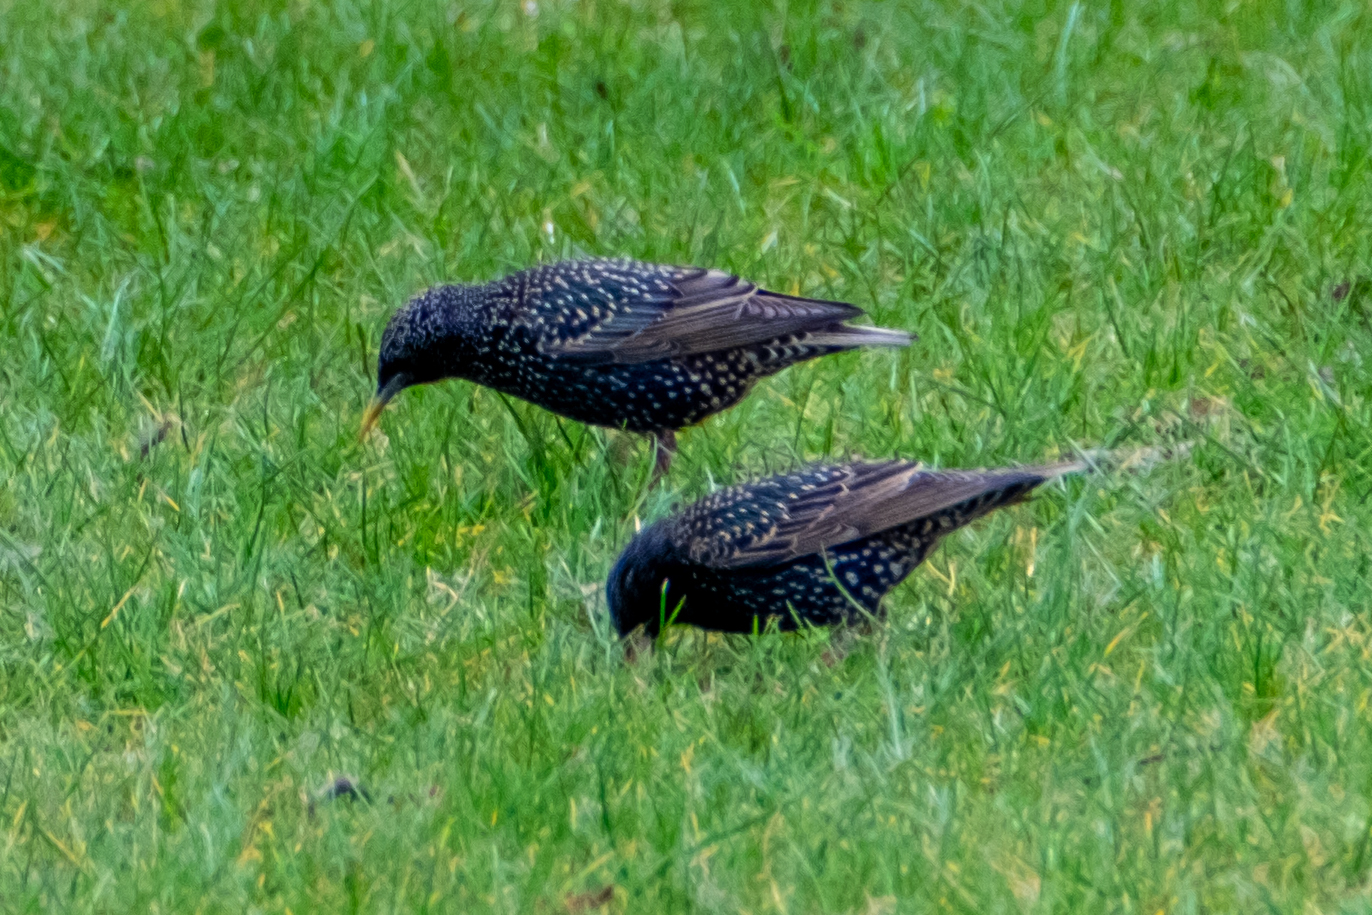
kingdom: Animalia
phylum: Chordata
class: Aves
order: Passeriformes
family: Sturnidae
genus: Sturnus
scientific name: Sturnus vulgaris
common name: Common starling
